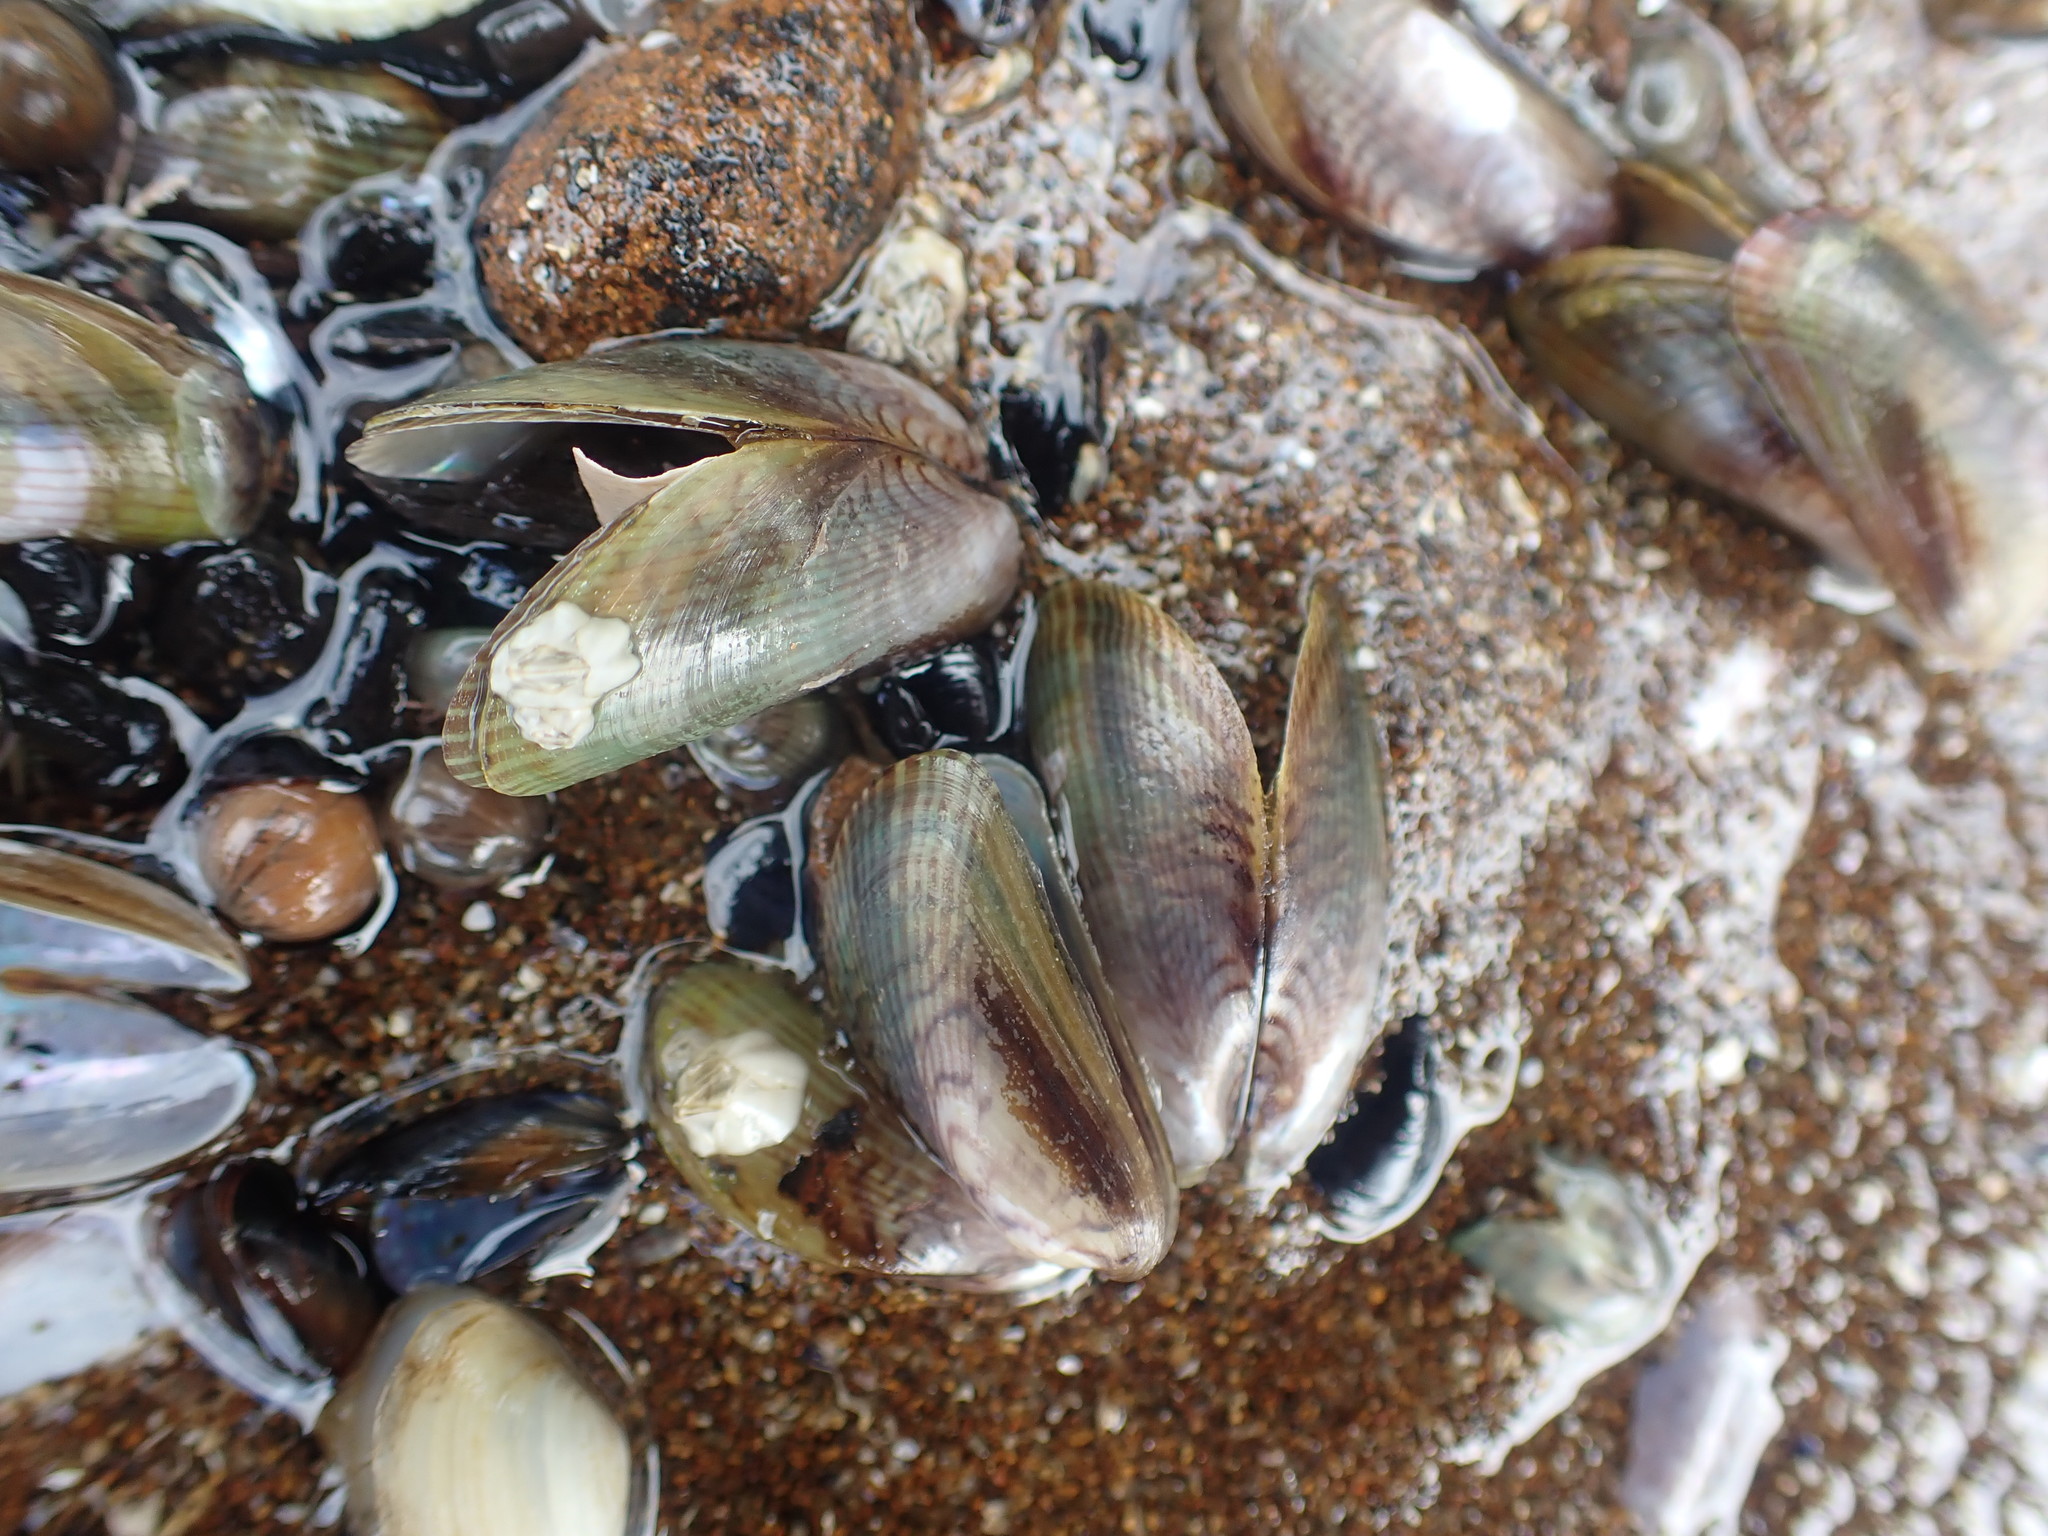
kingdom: Animalia
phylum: Mollusca
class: Bivalvia
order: Mytilida
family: Mytilidae
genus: Arcuatula
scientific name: Arcuatula senhousia
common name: Asian mussel
